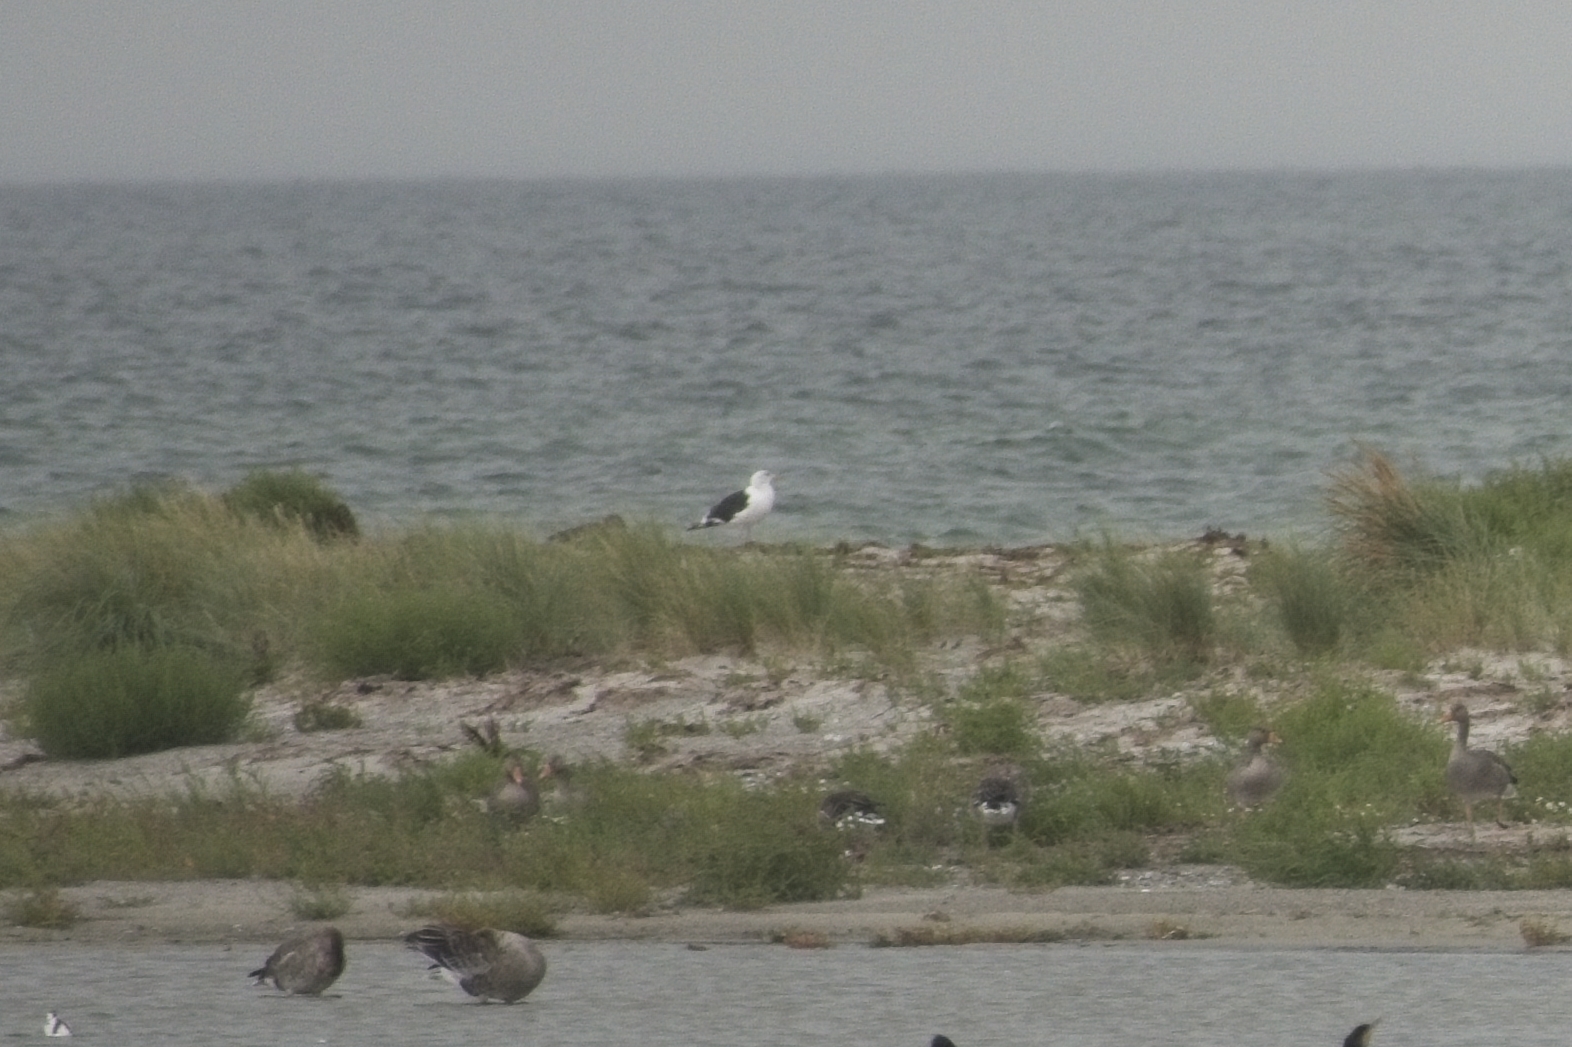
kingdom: Animalia
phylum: Chordata
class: Aves
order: Charadriiformes
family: Laridae
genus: Larus
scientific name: Larus marinus
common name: Great black-backed gull
